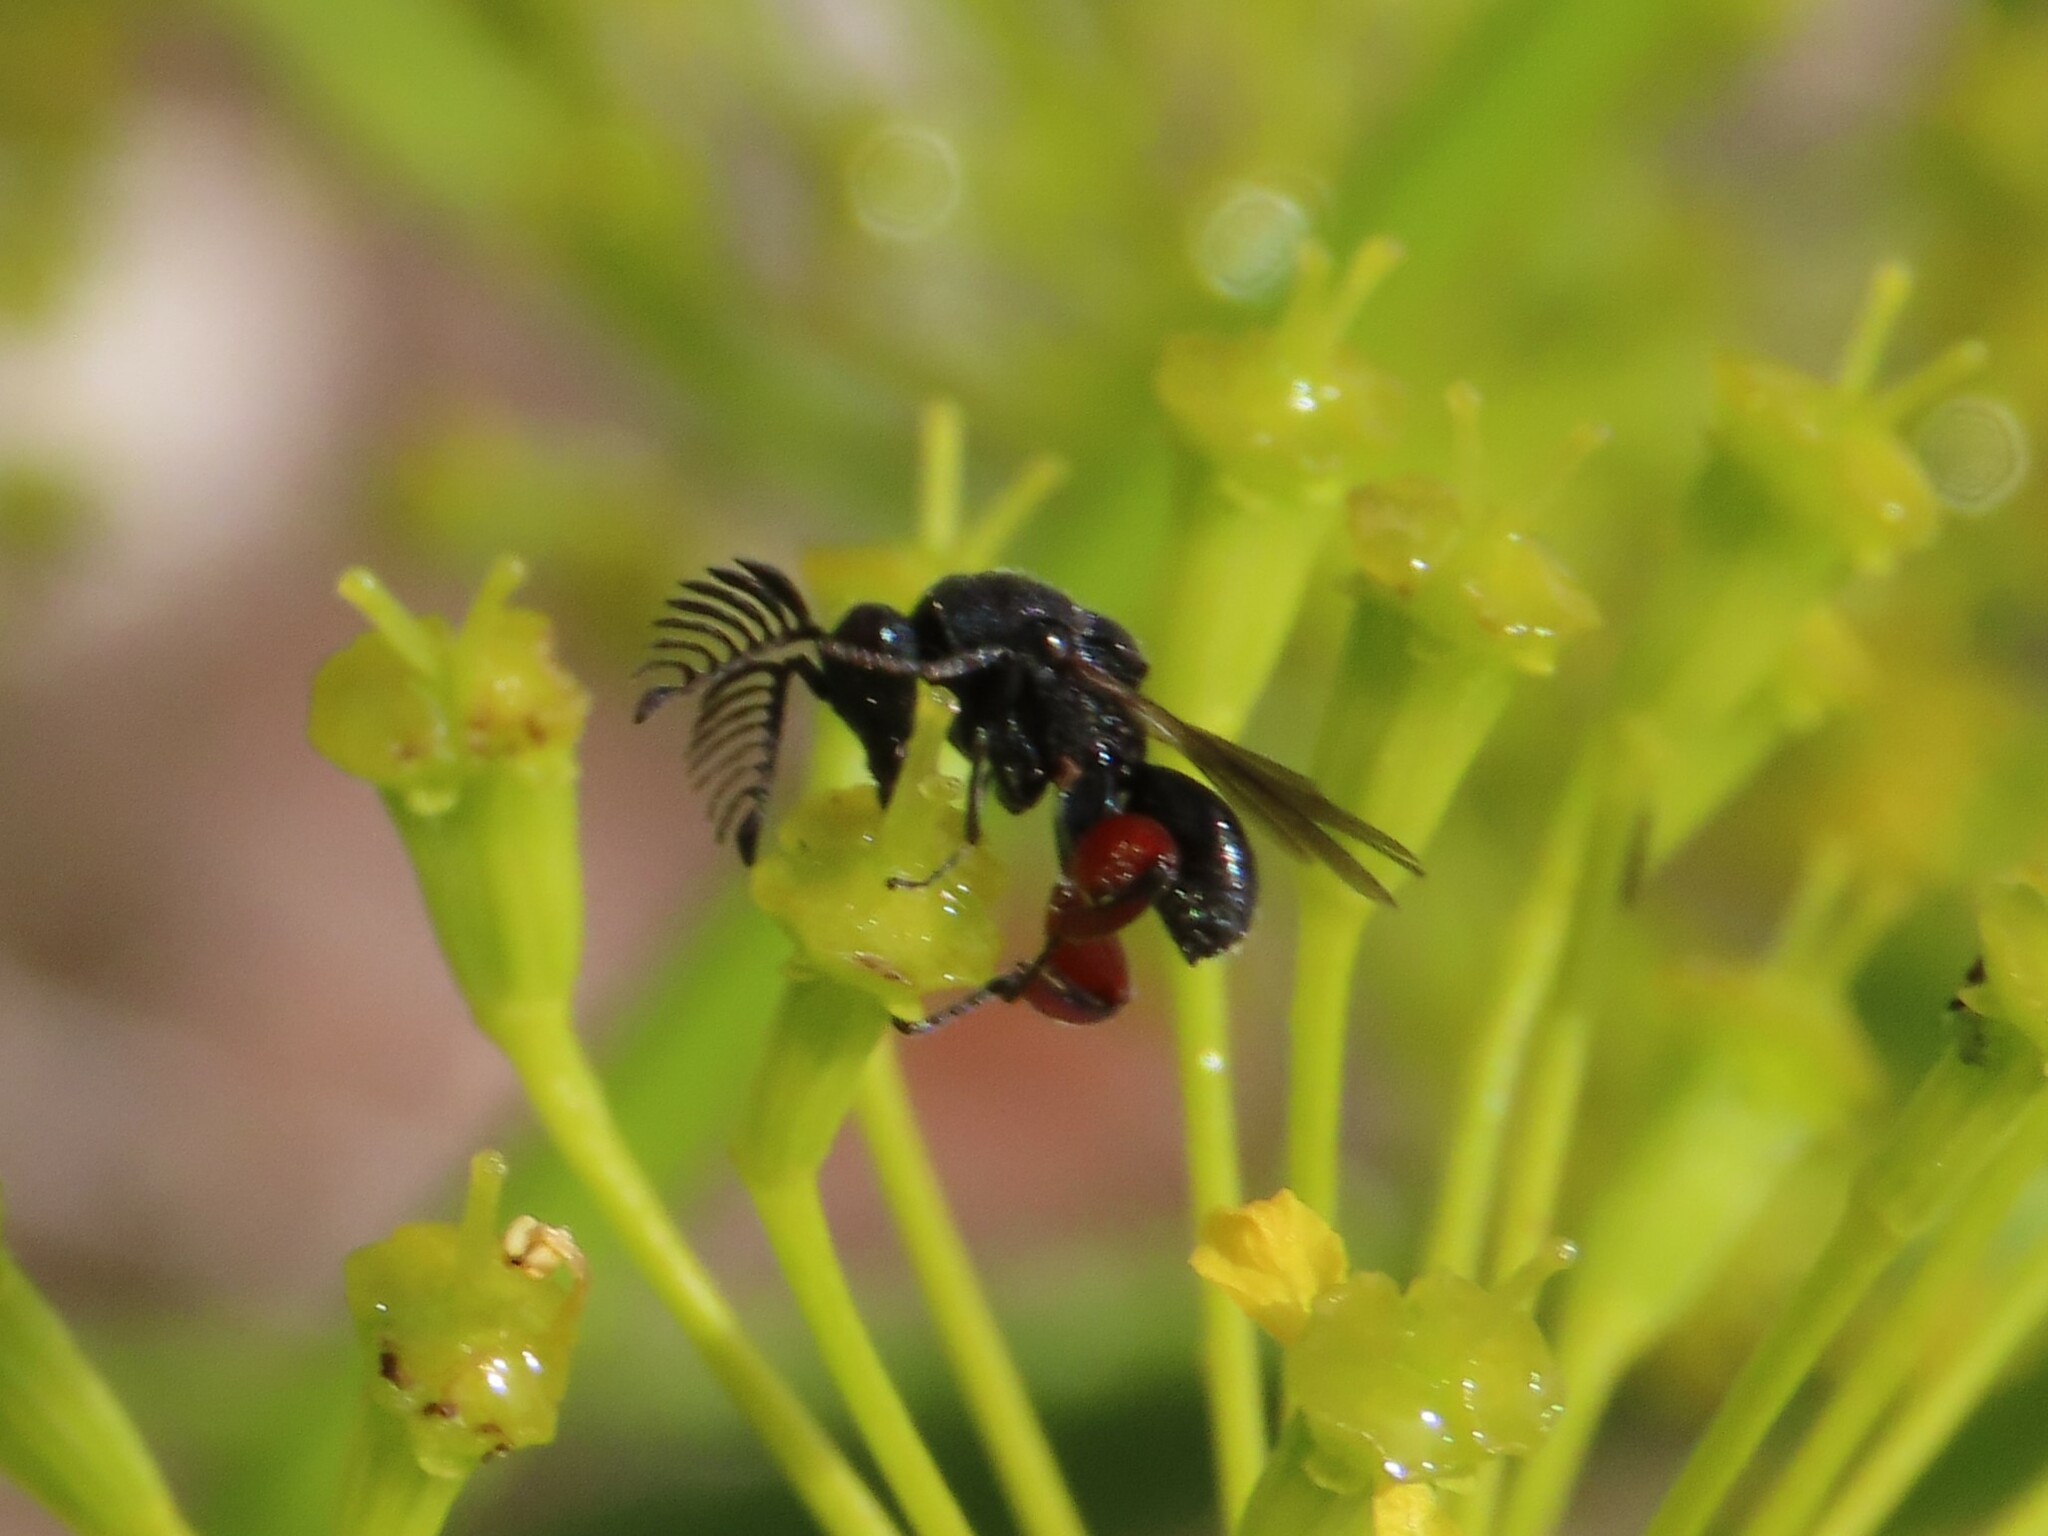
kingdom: Animalia
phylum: Arthropoda
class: Insecta
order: Hymenoptera
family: Chalcididae
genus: Chirocera
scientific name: Chirocera pectinicornis
